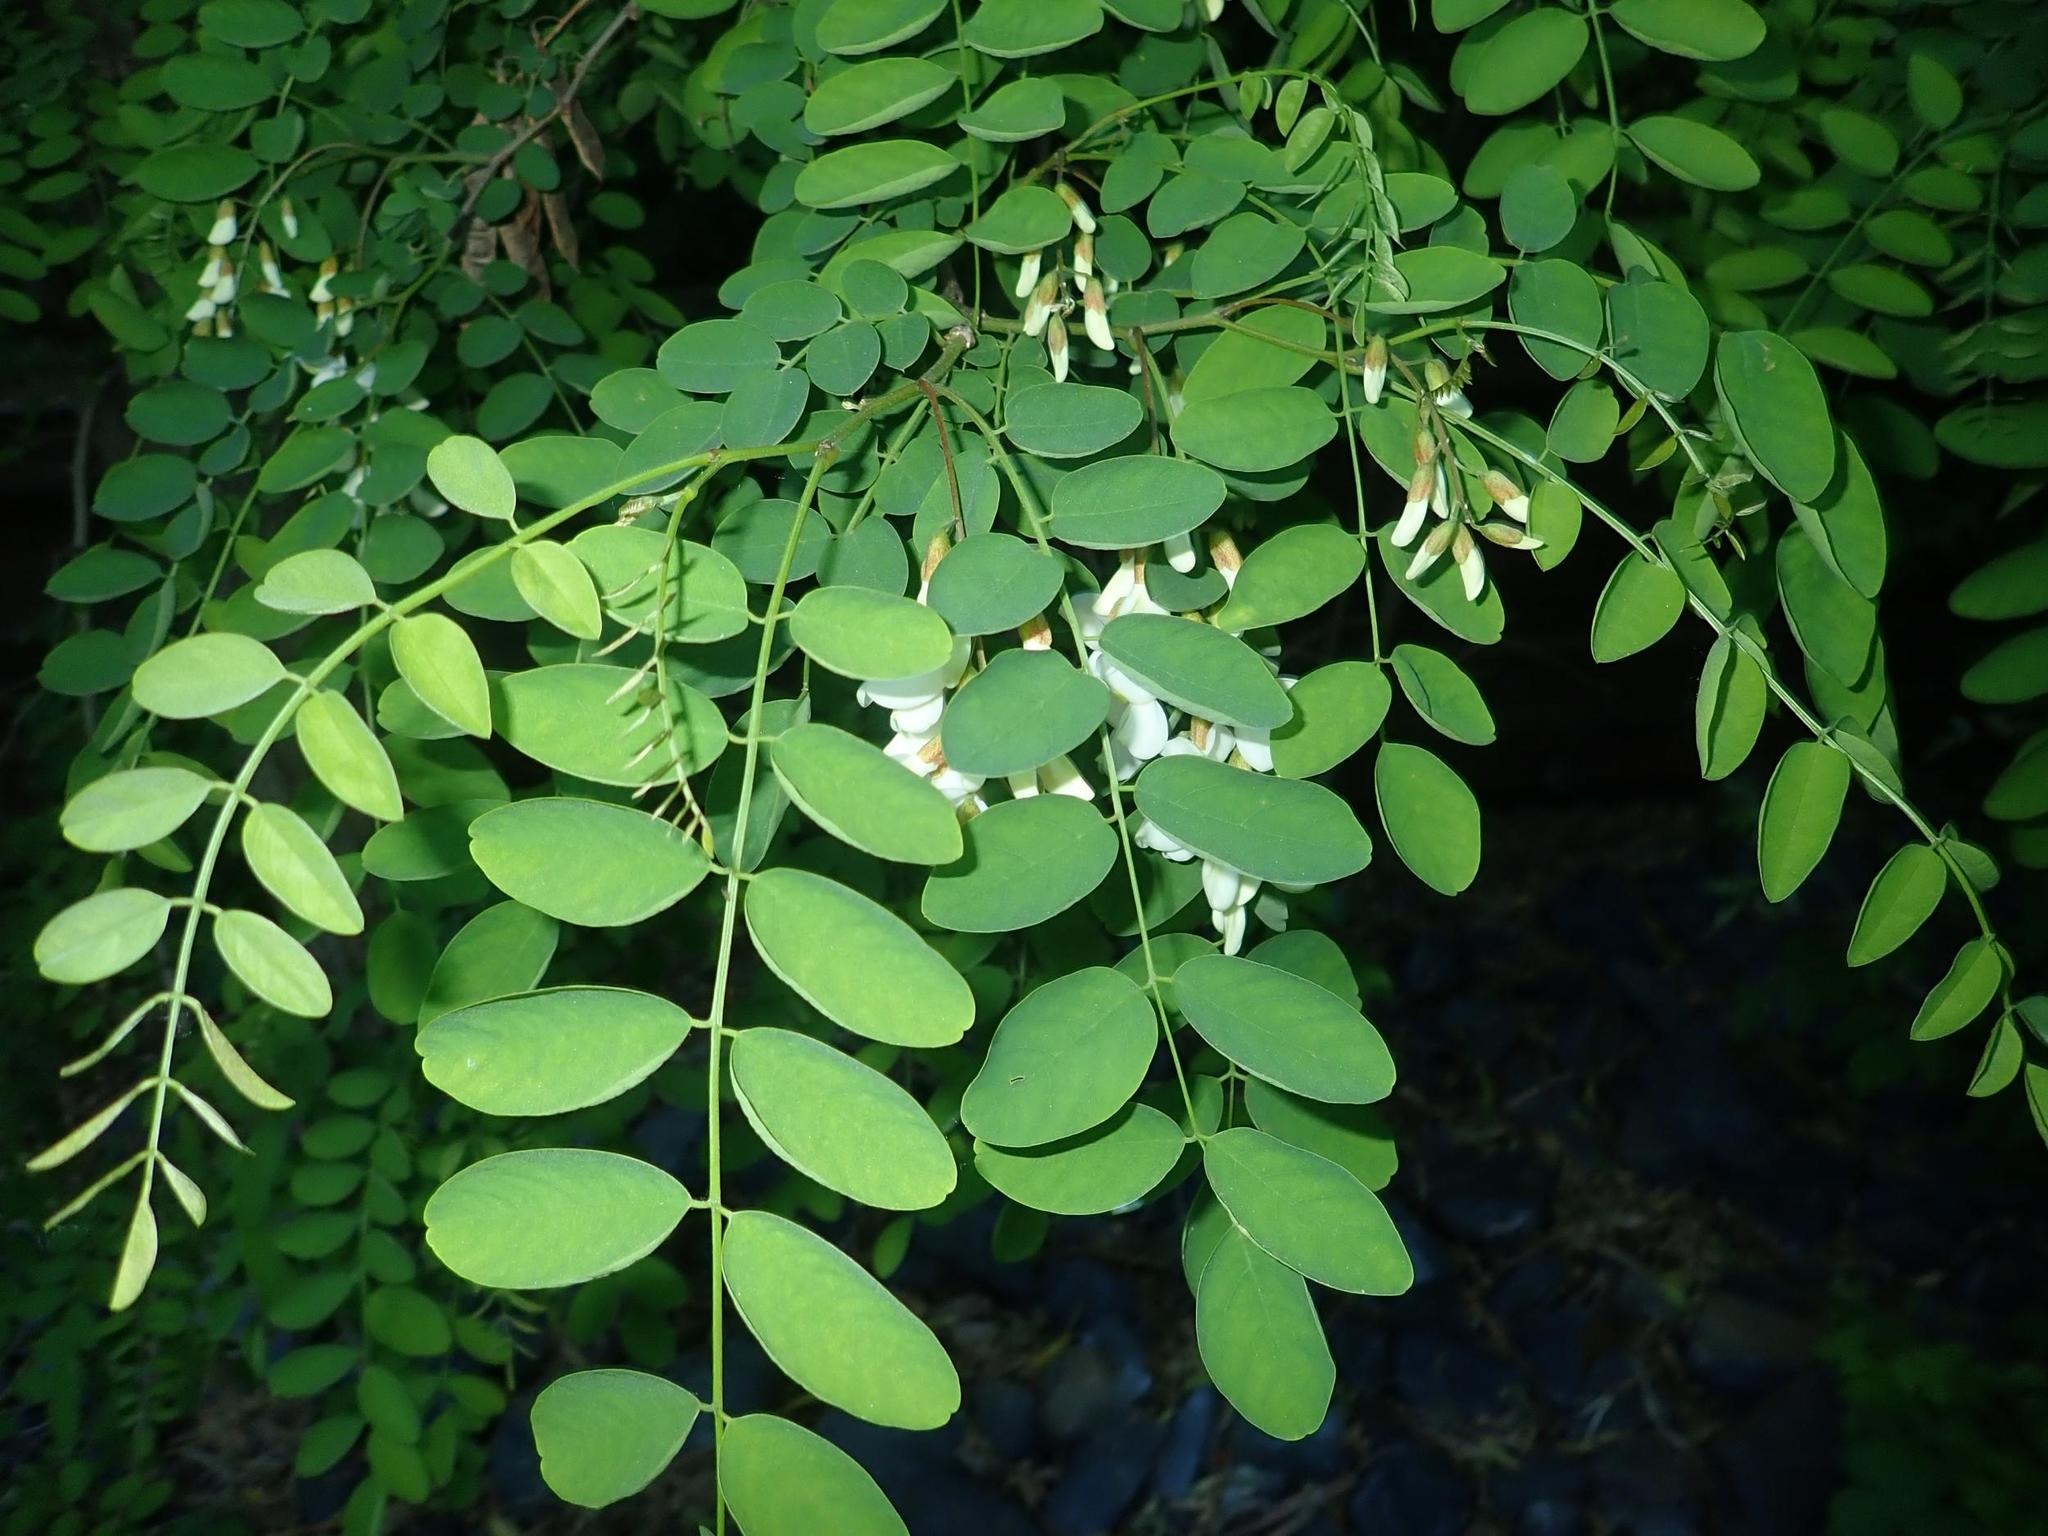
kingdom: Plantae
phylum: Tracheophyta
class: Magnoliopsida
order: Fabales
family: Fabaceae
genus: Robinia
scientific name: Robinia pseudoacacia
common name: Black locust
